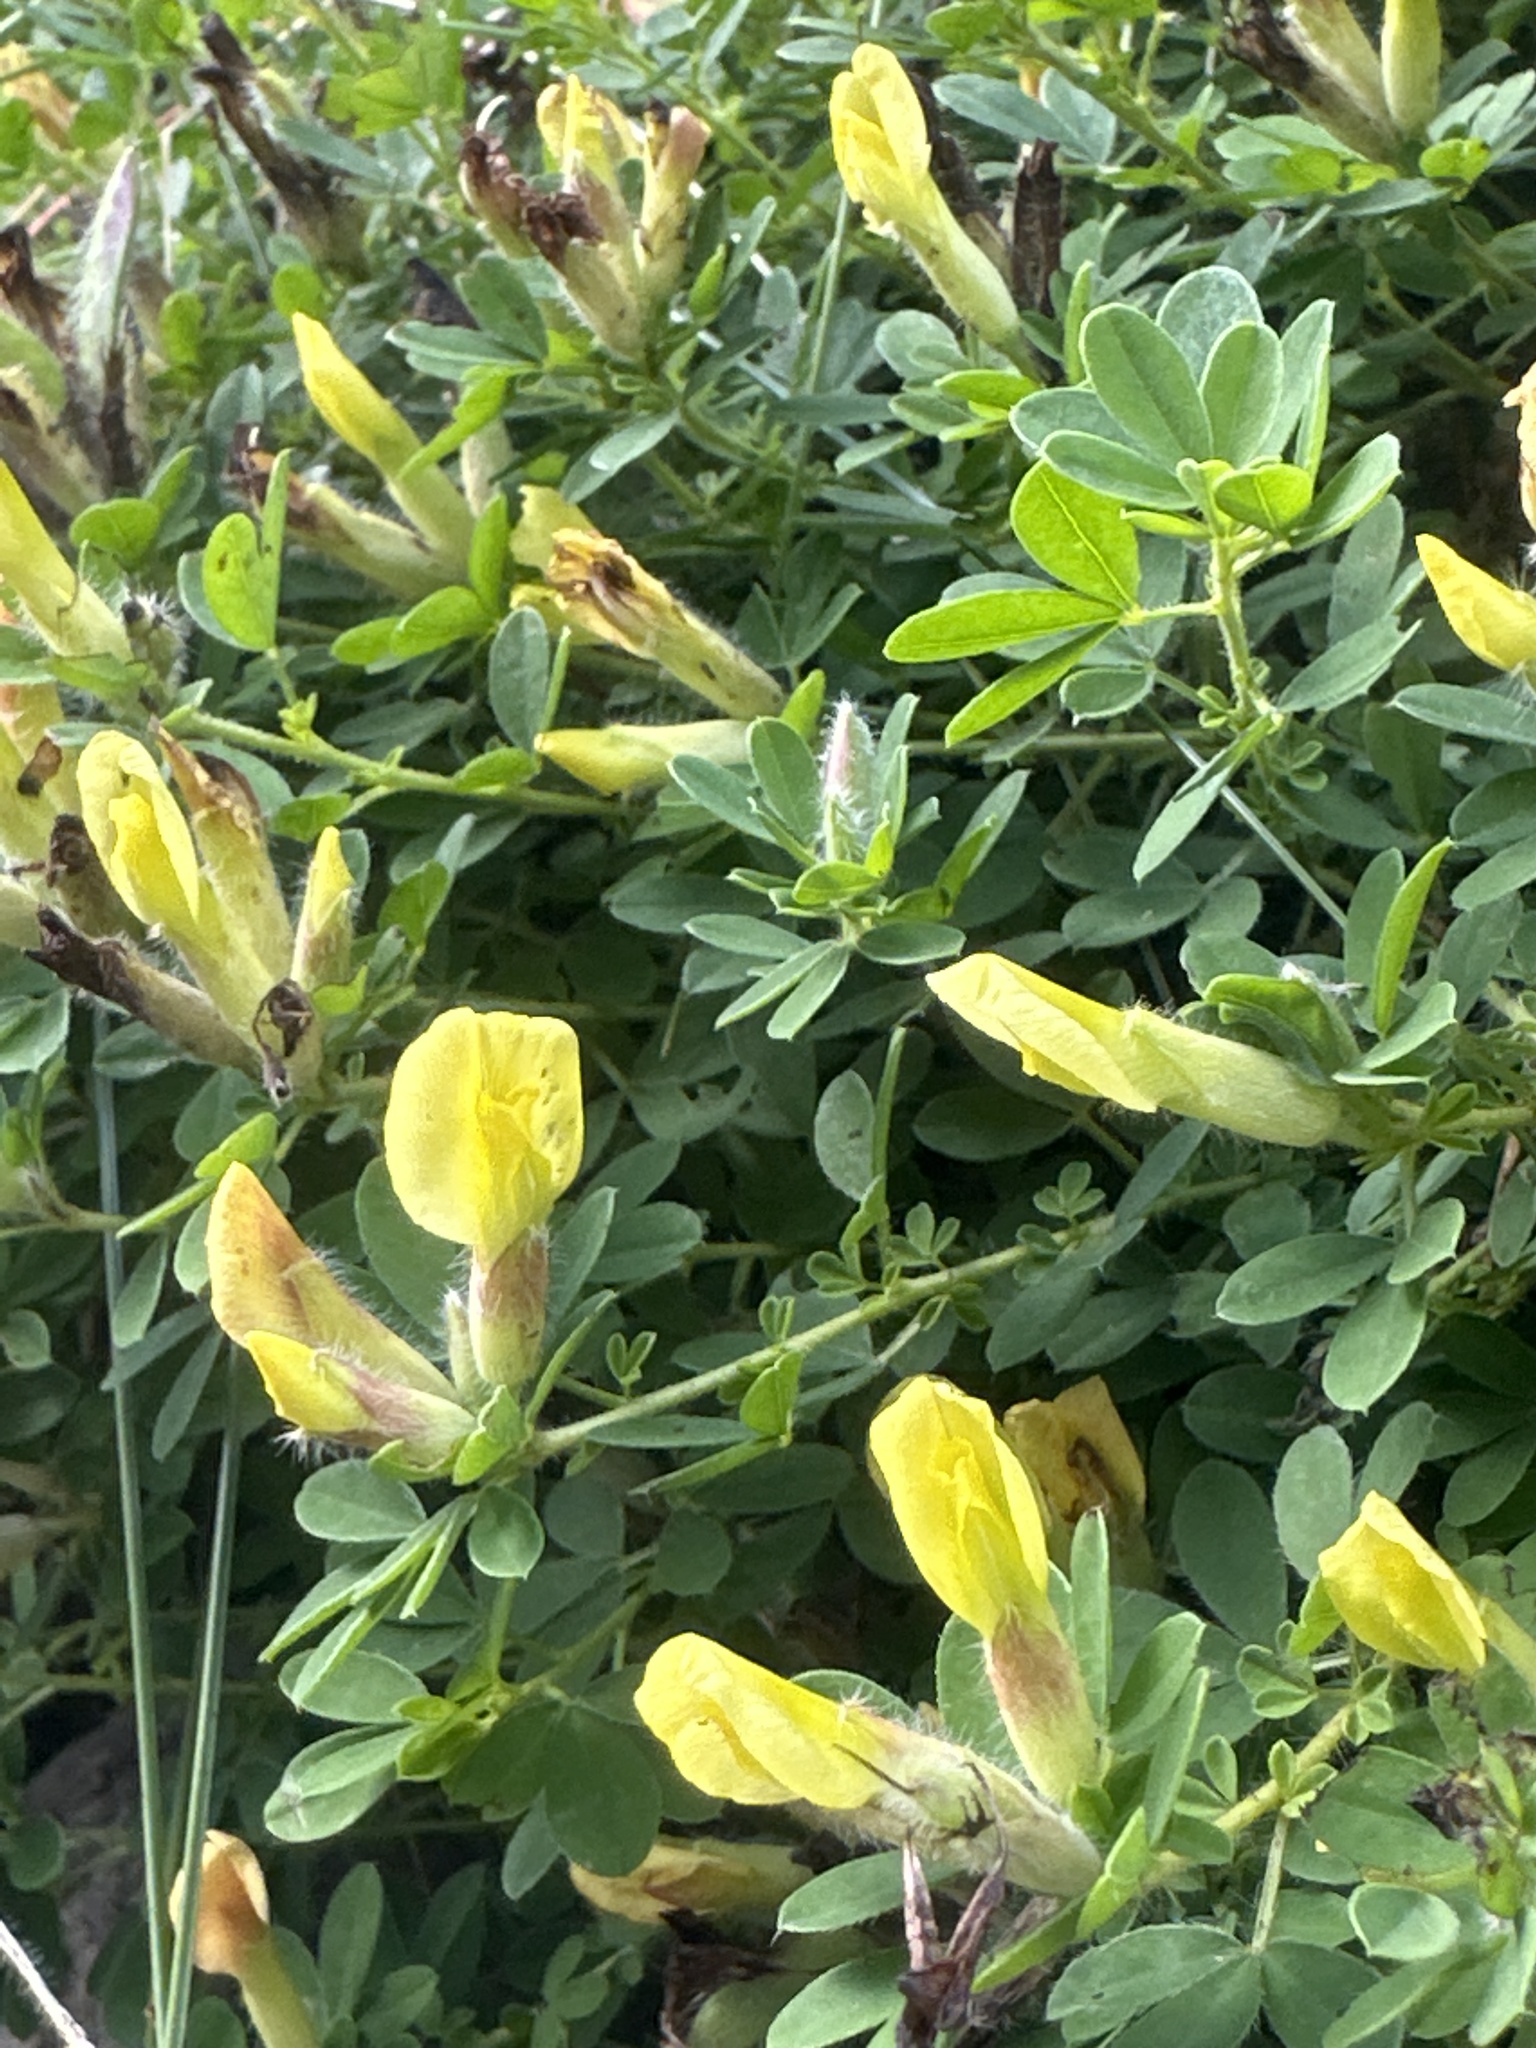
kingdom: Plantae
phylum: Tracheophyta
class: Magnoliopsida
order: Fabales
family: Fabaceae
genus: Chamaecytisus
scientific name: Chamaecytisus supinus
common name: Clustered broom
